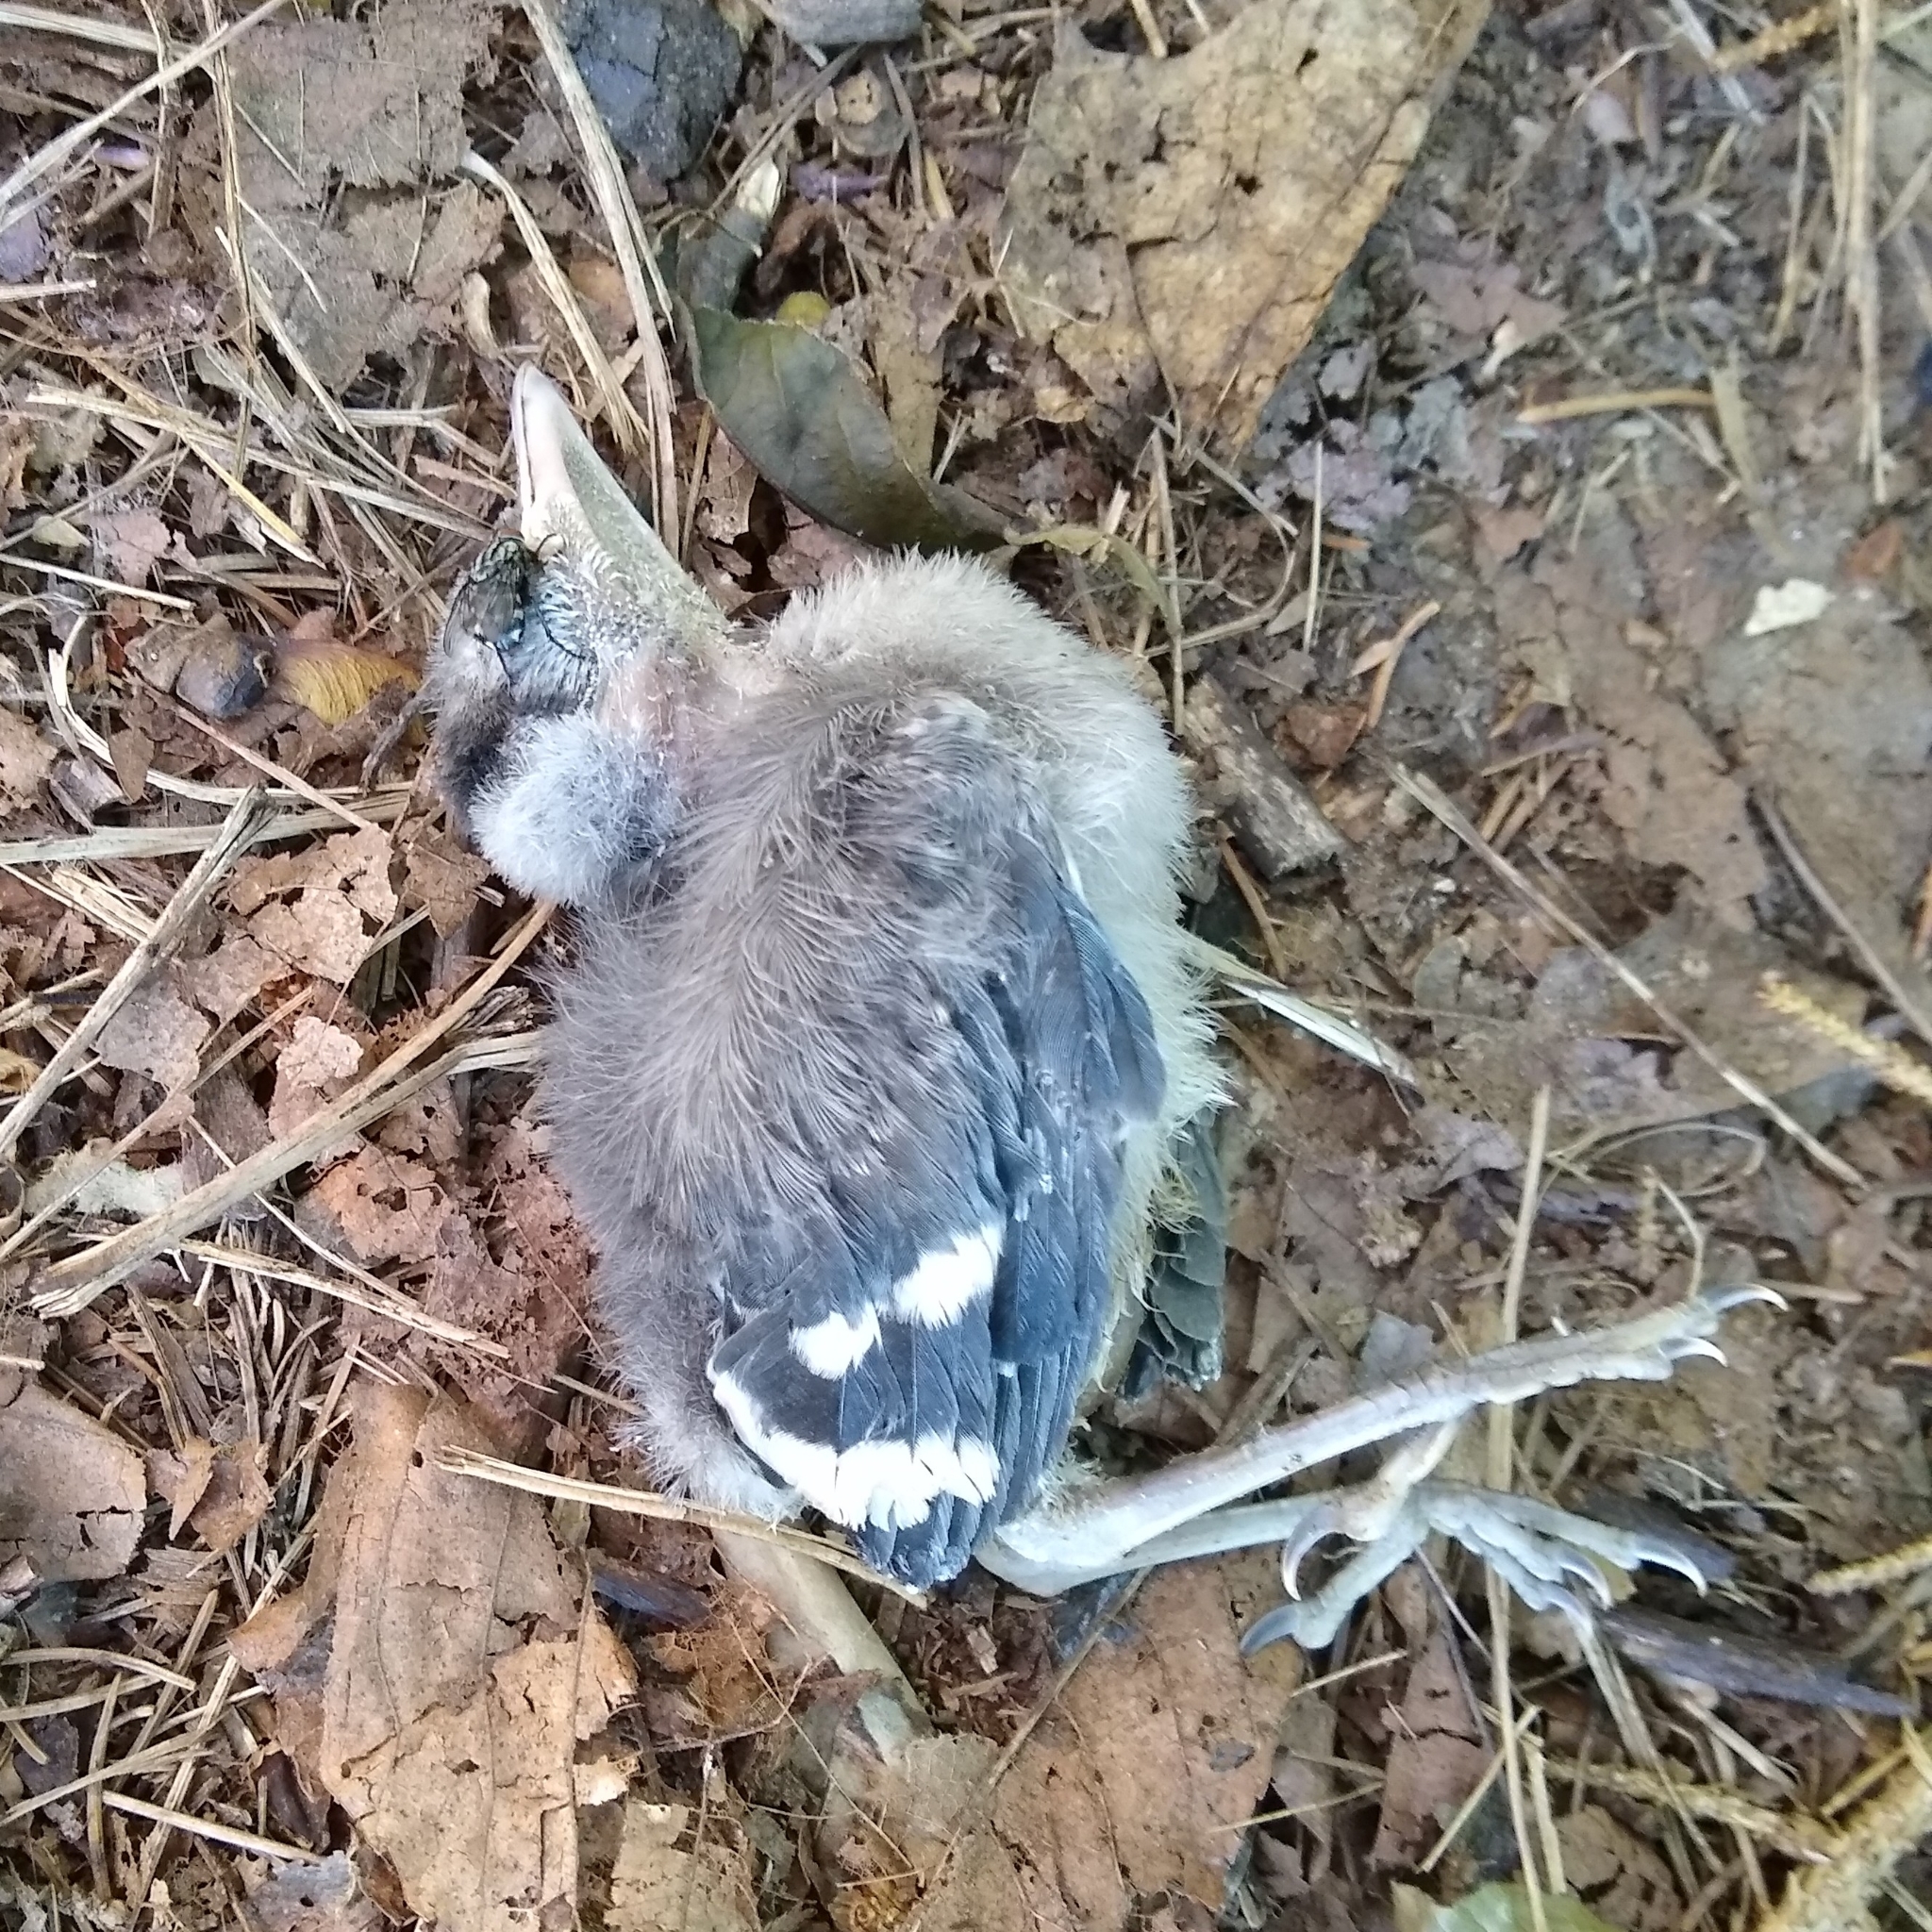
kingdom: Animalia
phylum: Chordata
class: Aves
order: Passeriformes
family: Corvidae
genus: Cyanocitta
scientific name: Cyanocitta cristata
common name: Blue jay
